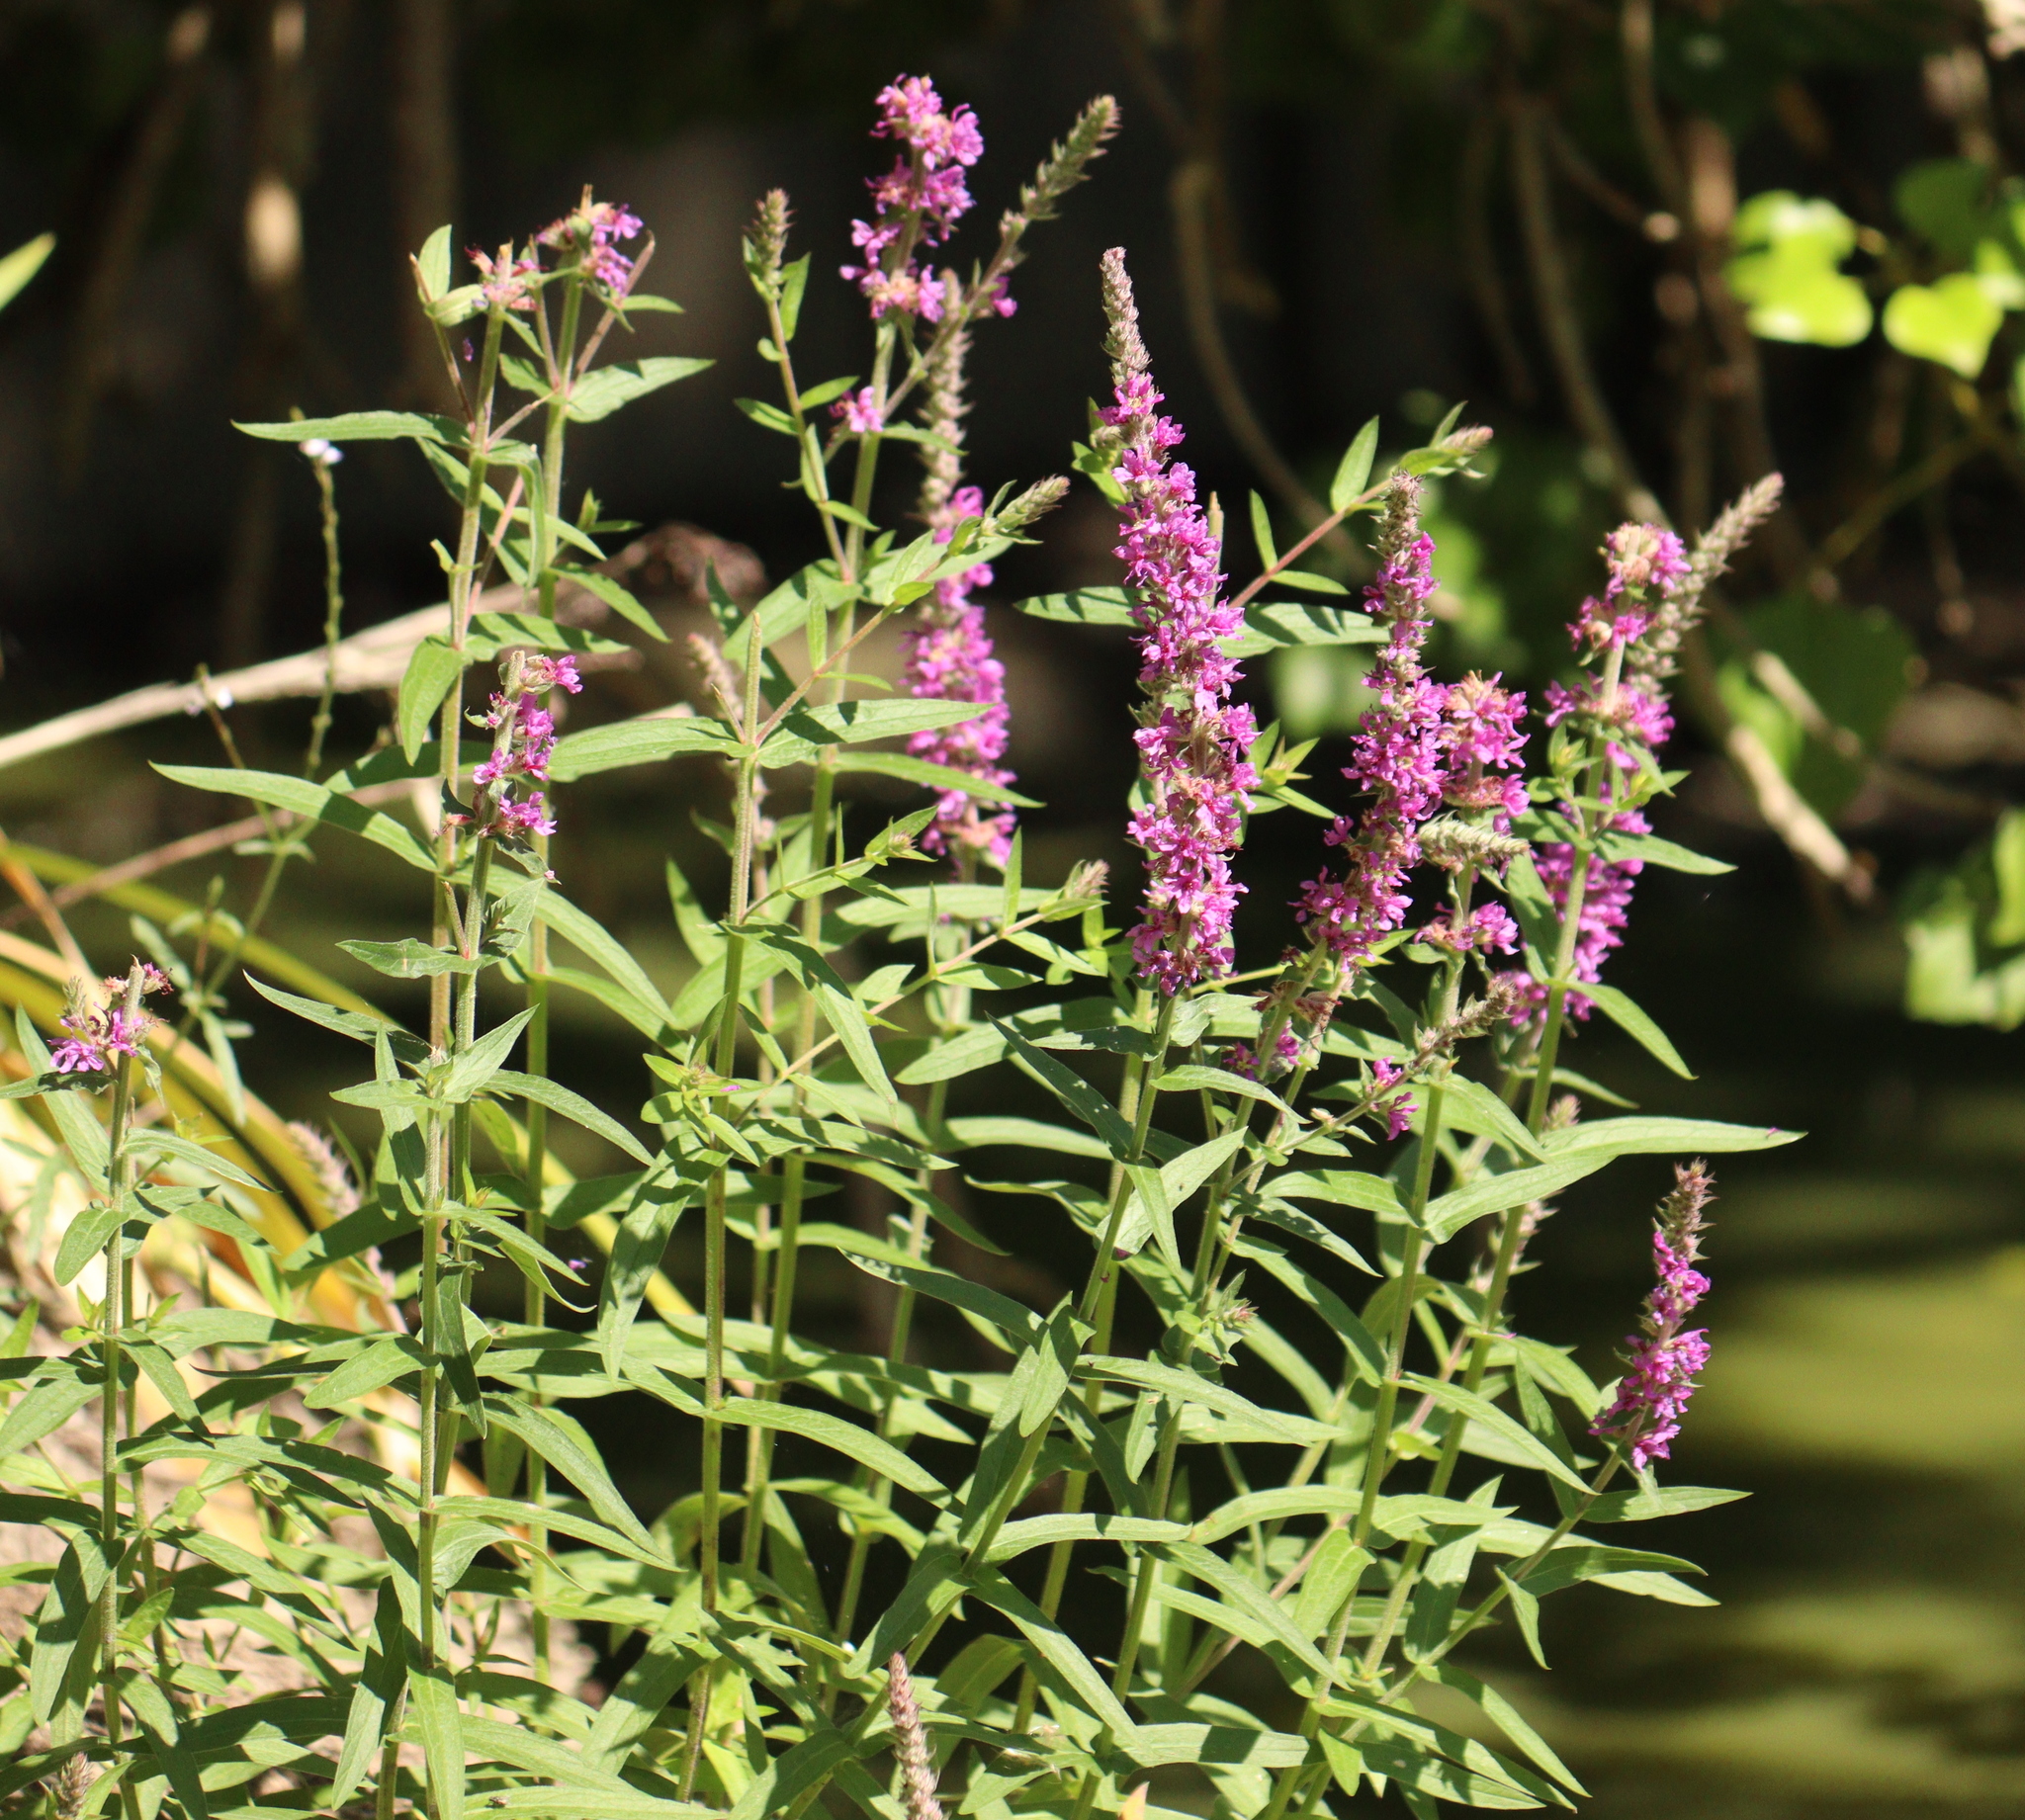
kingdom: Plantae
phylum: Tracheophyta
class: Magnoliopsida
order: Myrtales
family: Lythraceae
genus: Lythrum
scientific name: Lythrum salicaria
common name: Purple loosestrife
